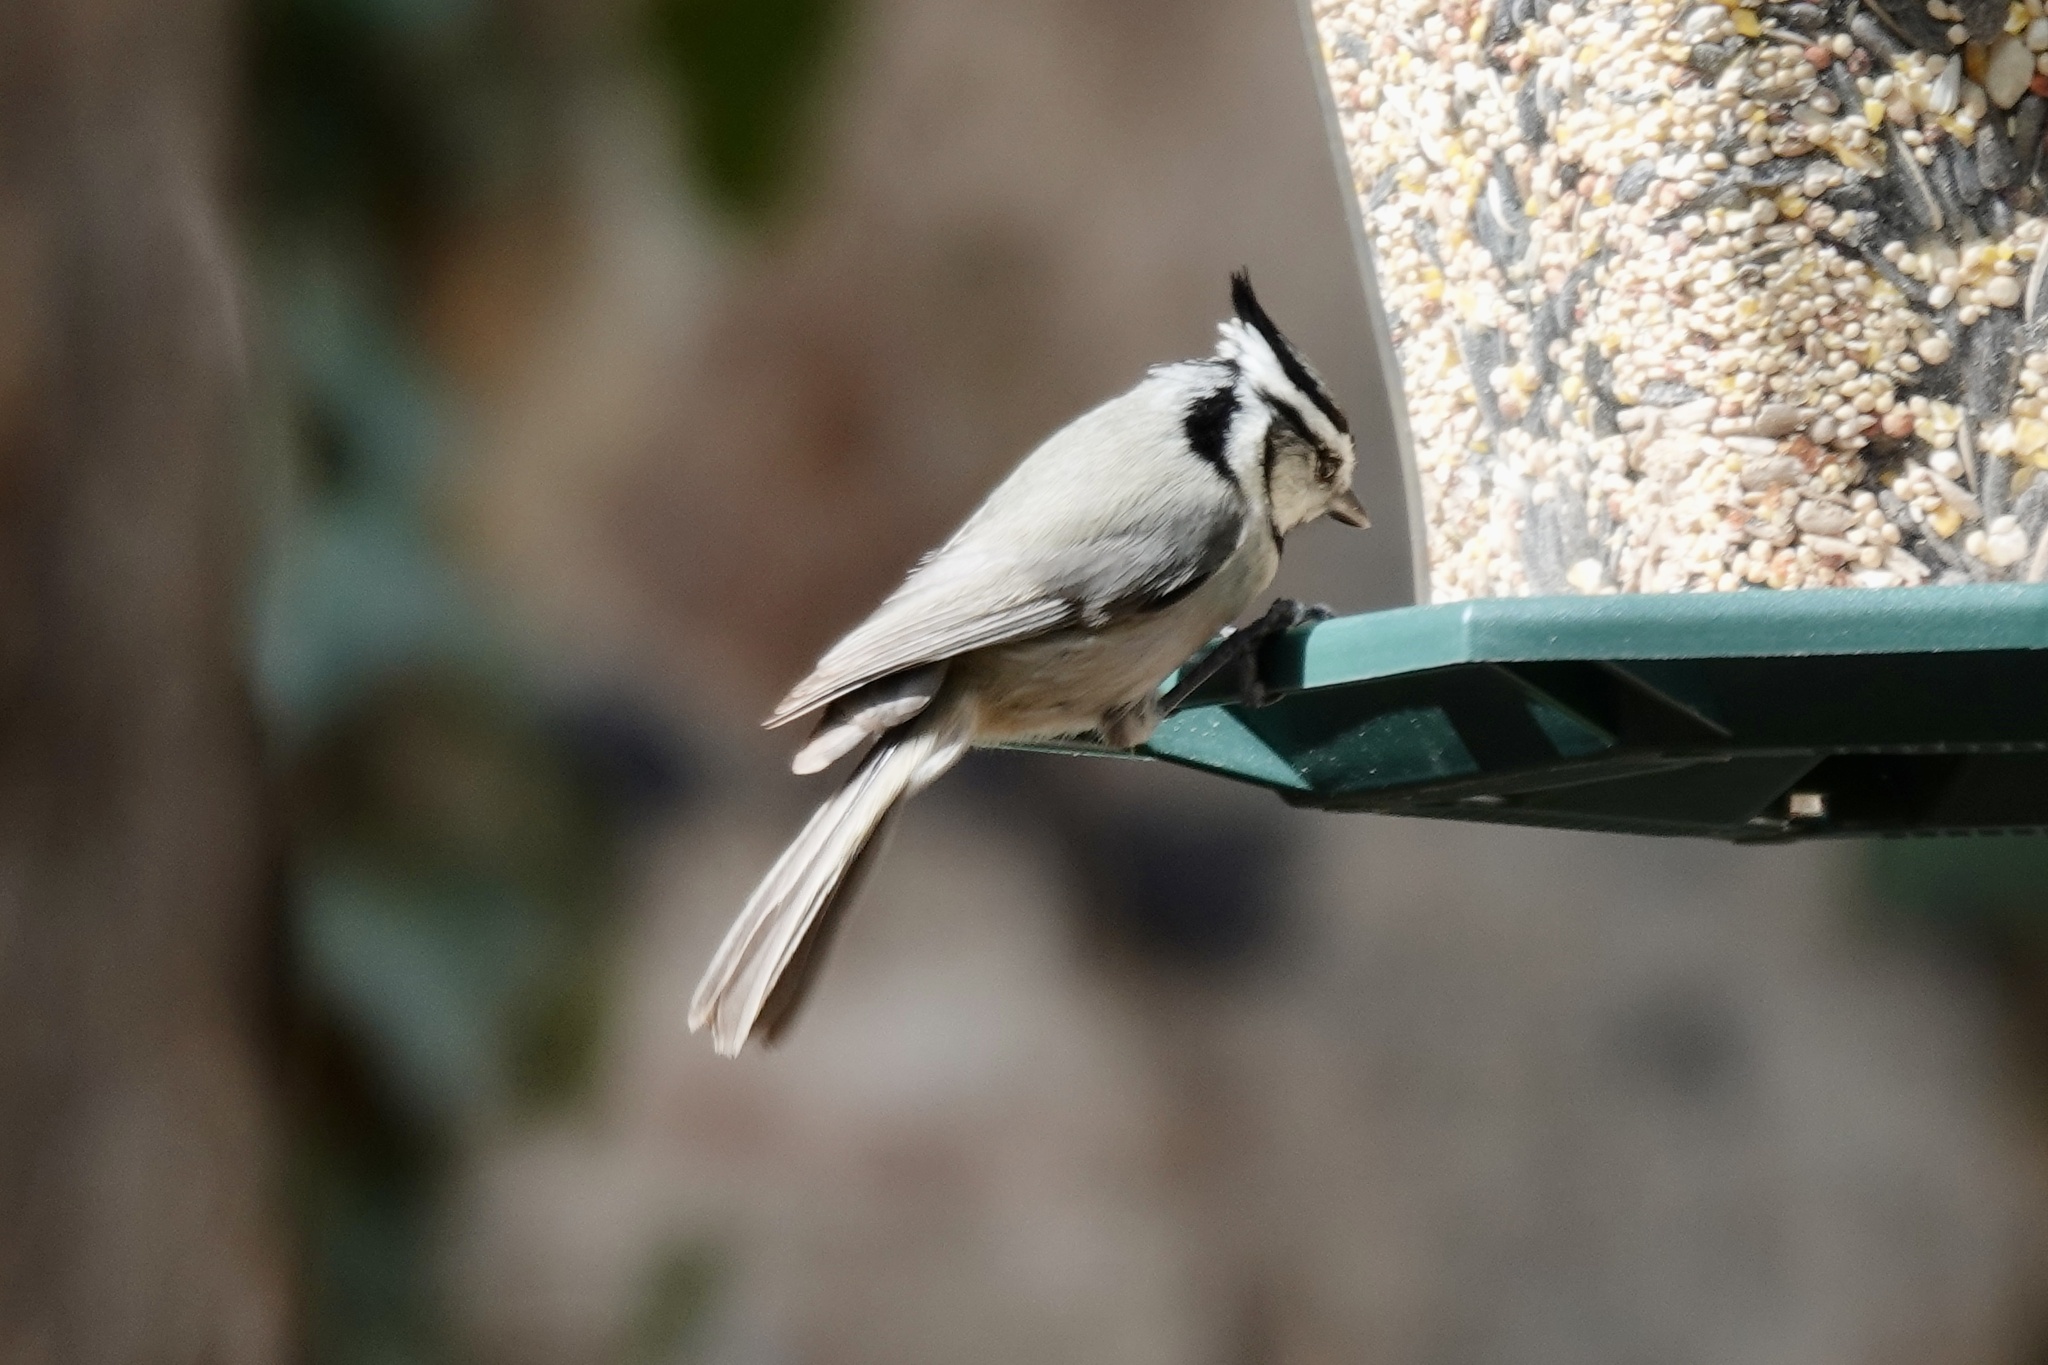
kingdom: Animalia
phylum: Chordata
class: Aves
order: Passeriformes
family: Paridae
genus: Baeolophus
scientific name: Baeolophus wollweberi
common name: Bridled titmouse
